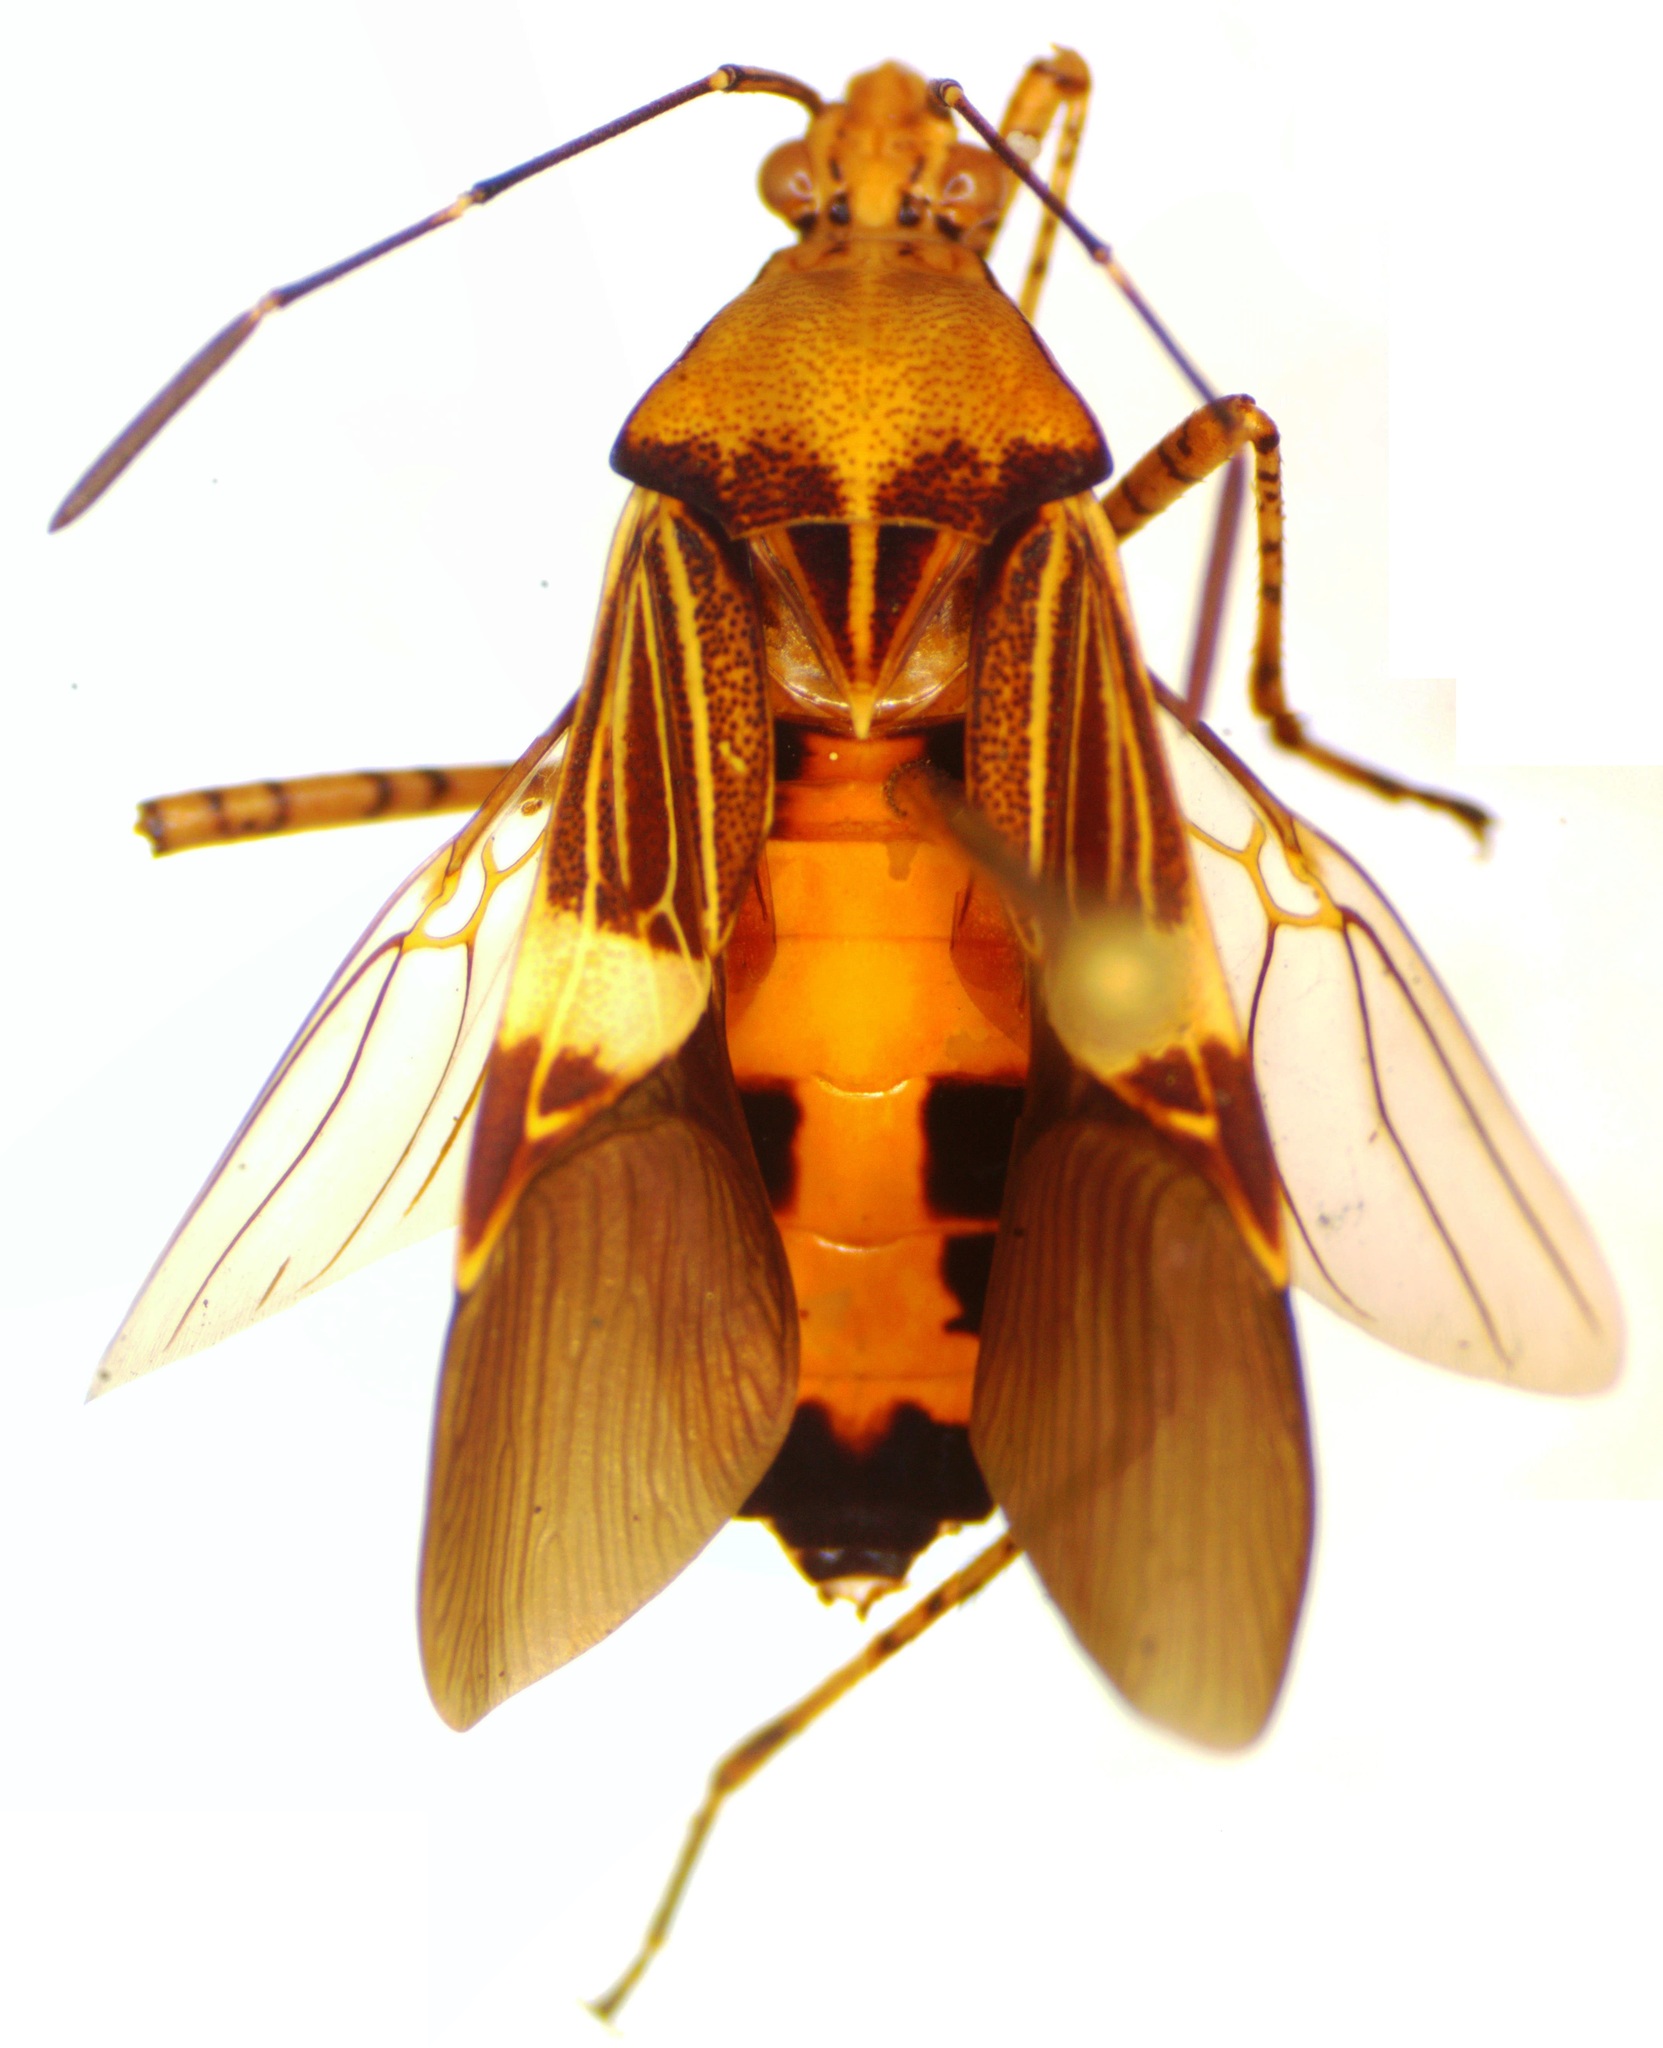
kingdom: Animalia
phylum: Arthropoda
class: Insecta
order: Hemiptera
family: Coreidae
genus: Hypselonotus
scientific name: Hypselonotus lineatus
